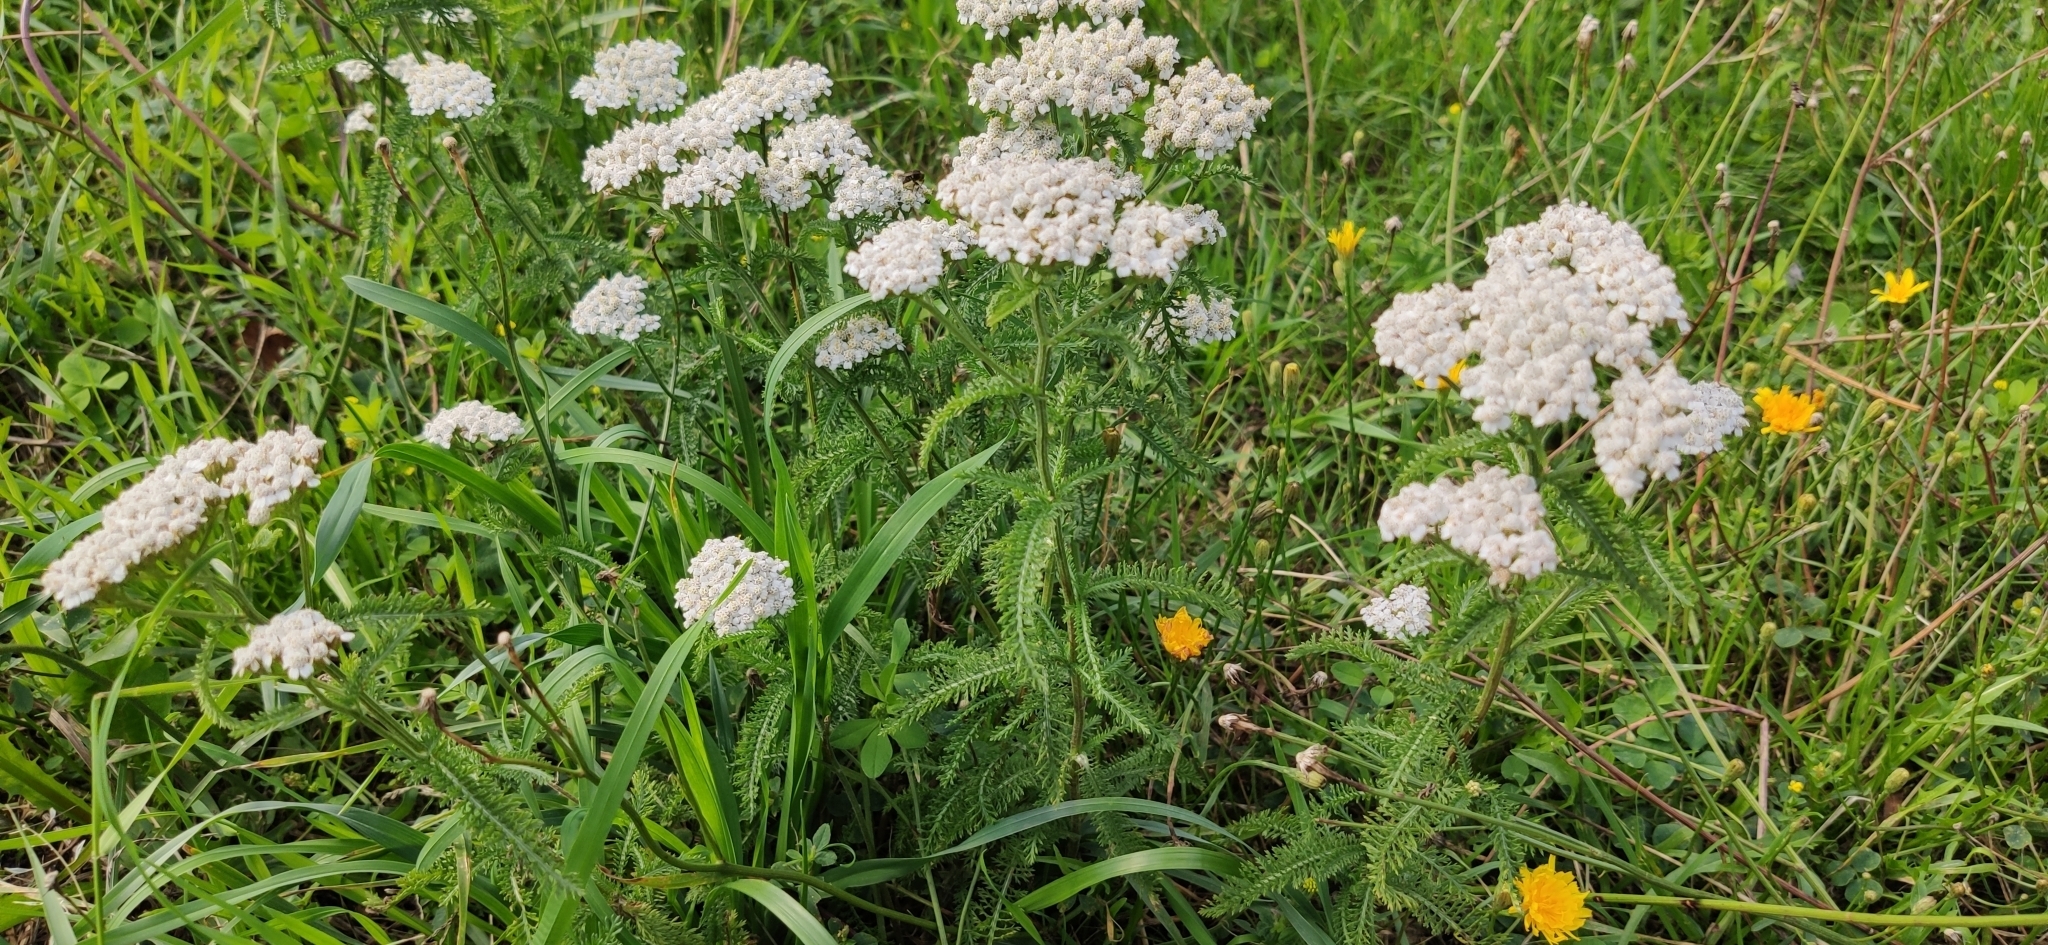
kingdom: Plantae
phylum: Tracheophyta
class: Magnoliopsida
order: Asterales
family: Asteraceae
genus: Achillea
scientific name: Achillea millefolium
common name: Yarrow
